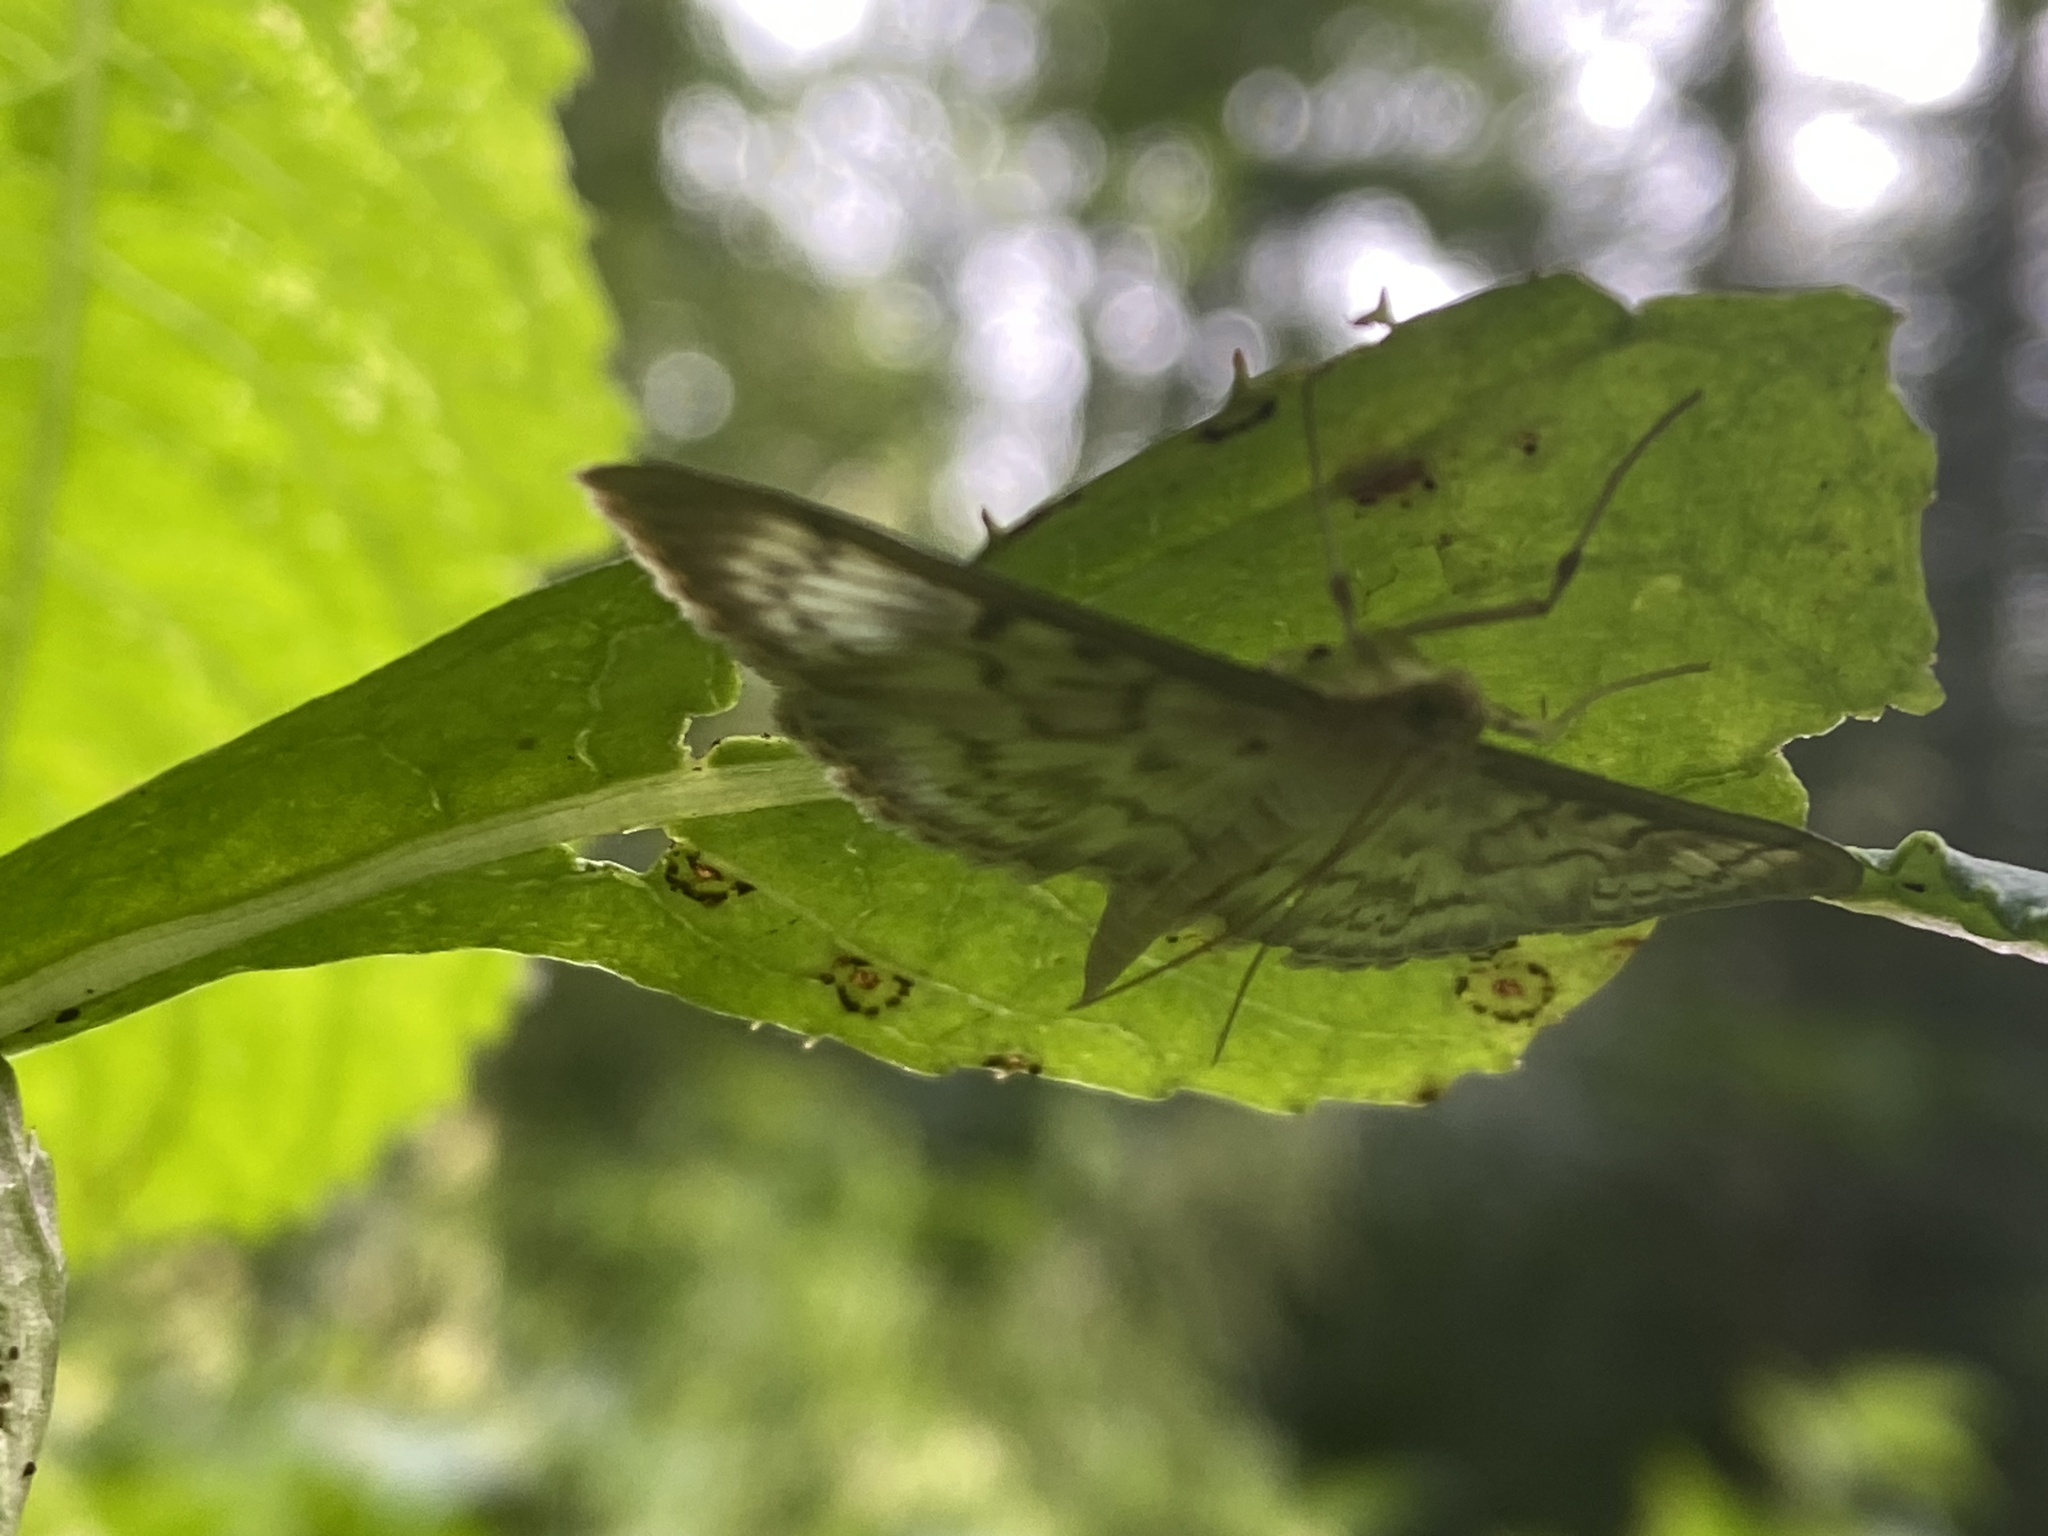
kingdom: Animalia
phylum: Arthropoda
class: Insecta
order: Lepidoptera
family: Crambidae
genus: Patania
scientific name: Patania ruralis
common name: Mother of pearl
